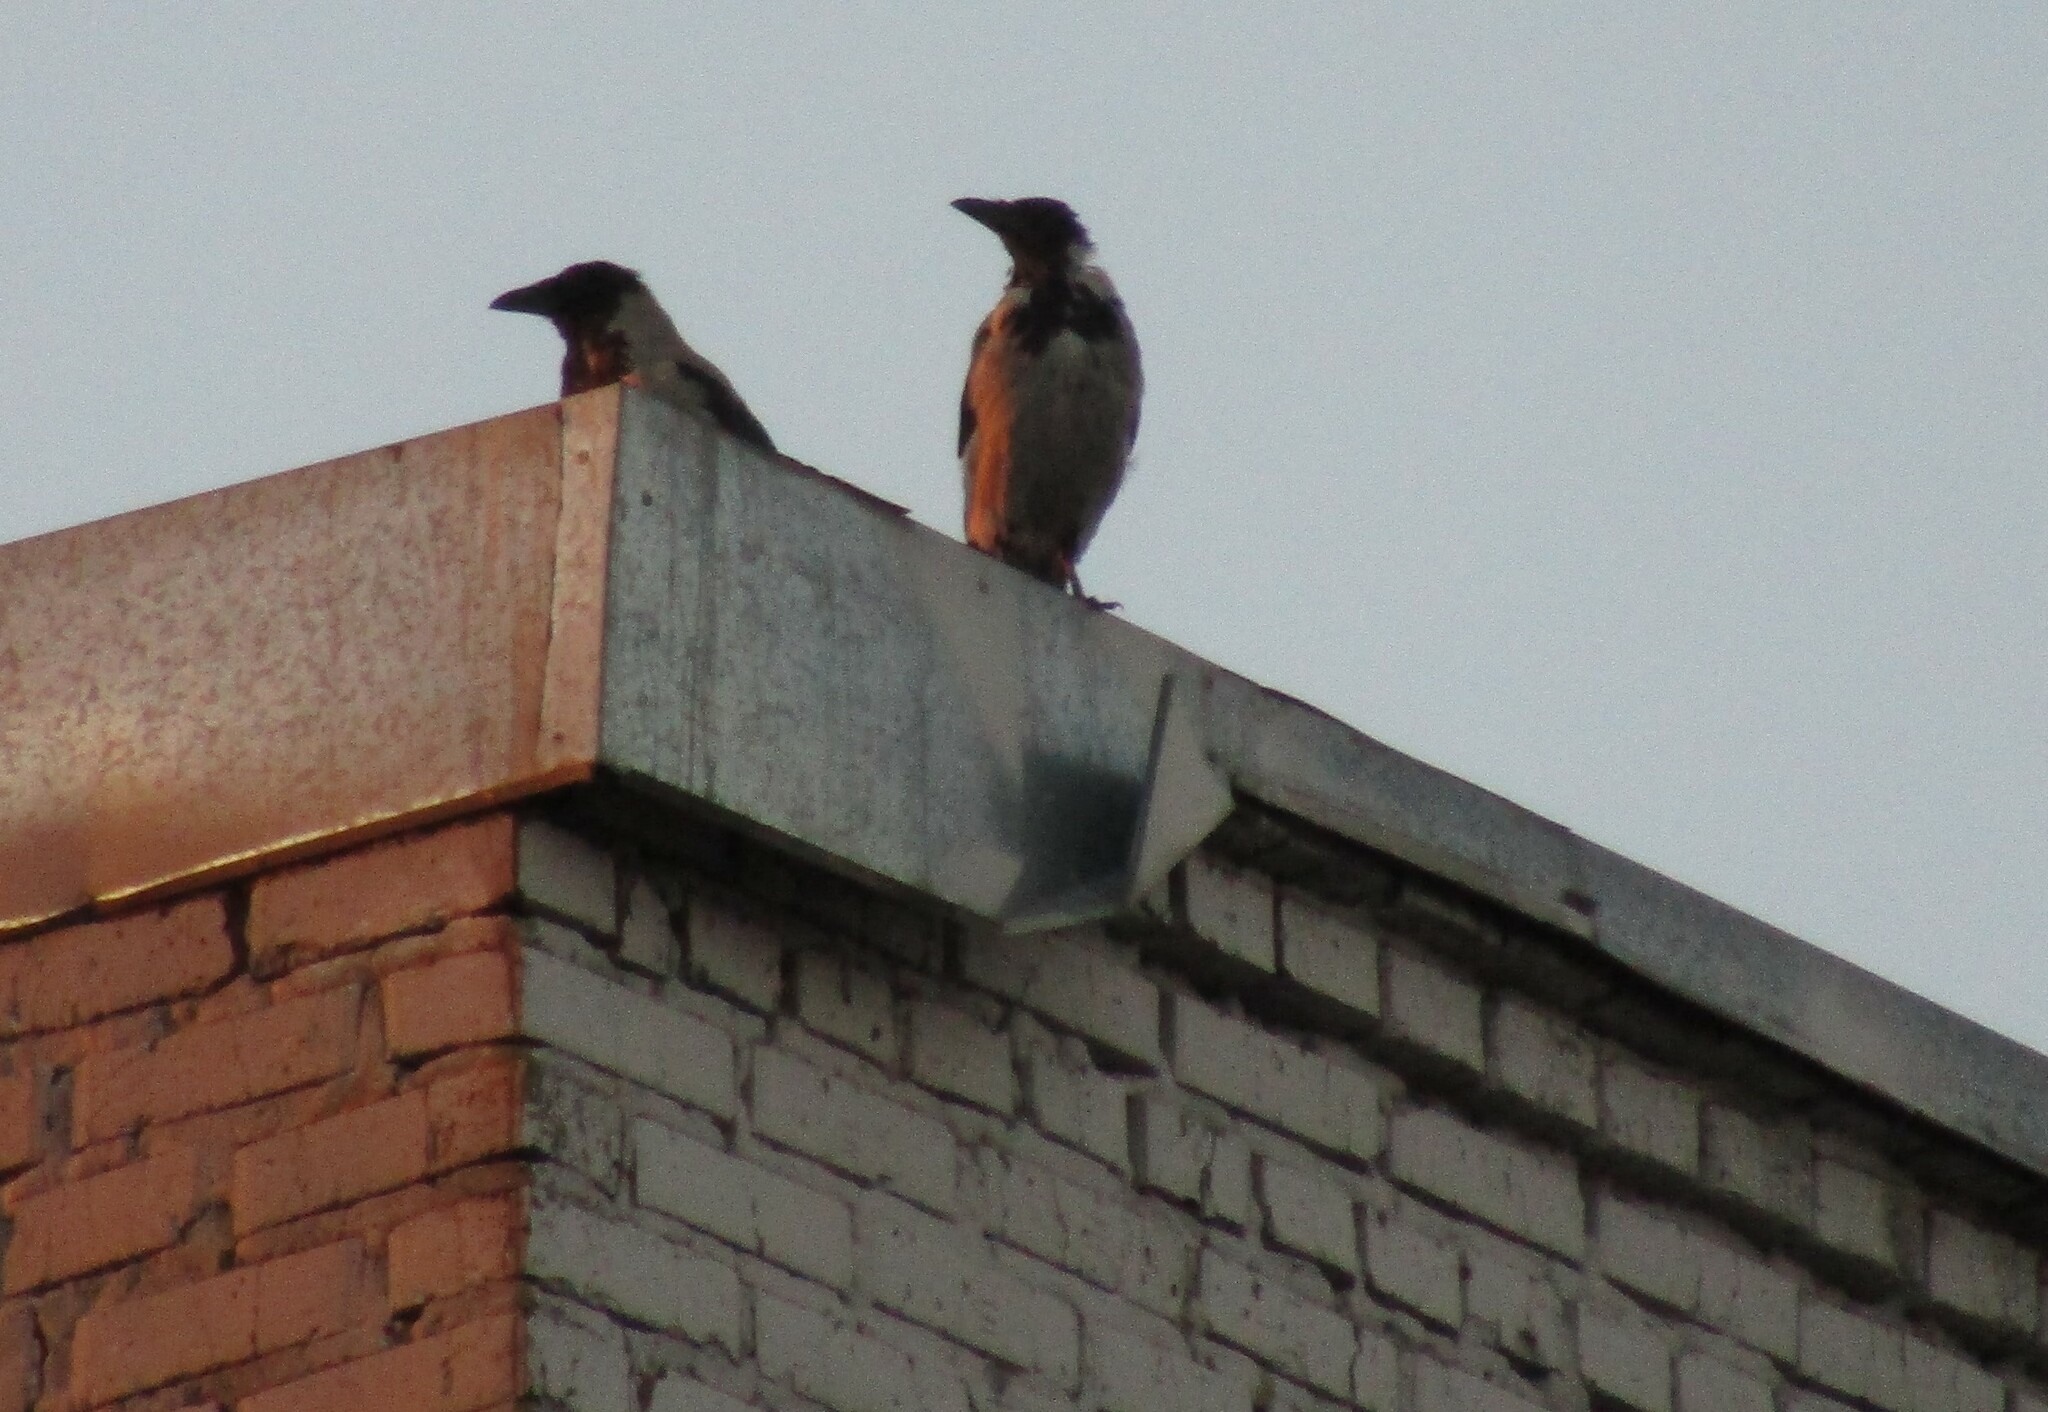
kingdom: Animalia
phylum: Chordata
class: Aves
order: Passeriformes
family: Corvidae
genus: Corvus
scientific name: Corvus cornix
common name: Hooded crow
